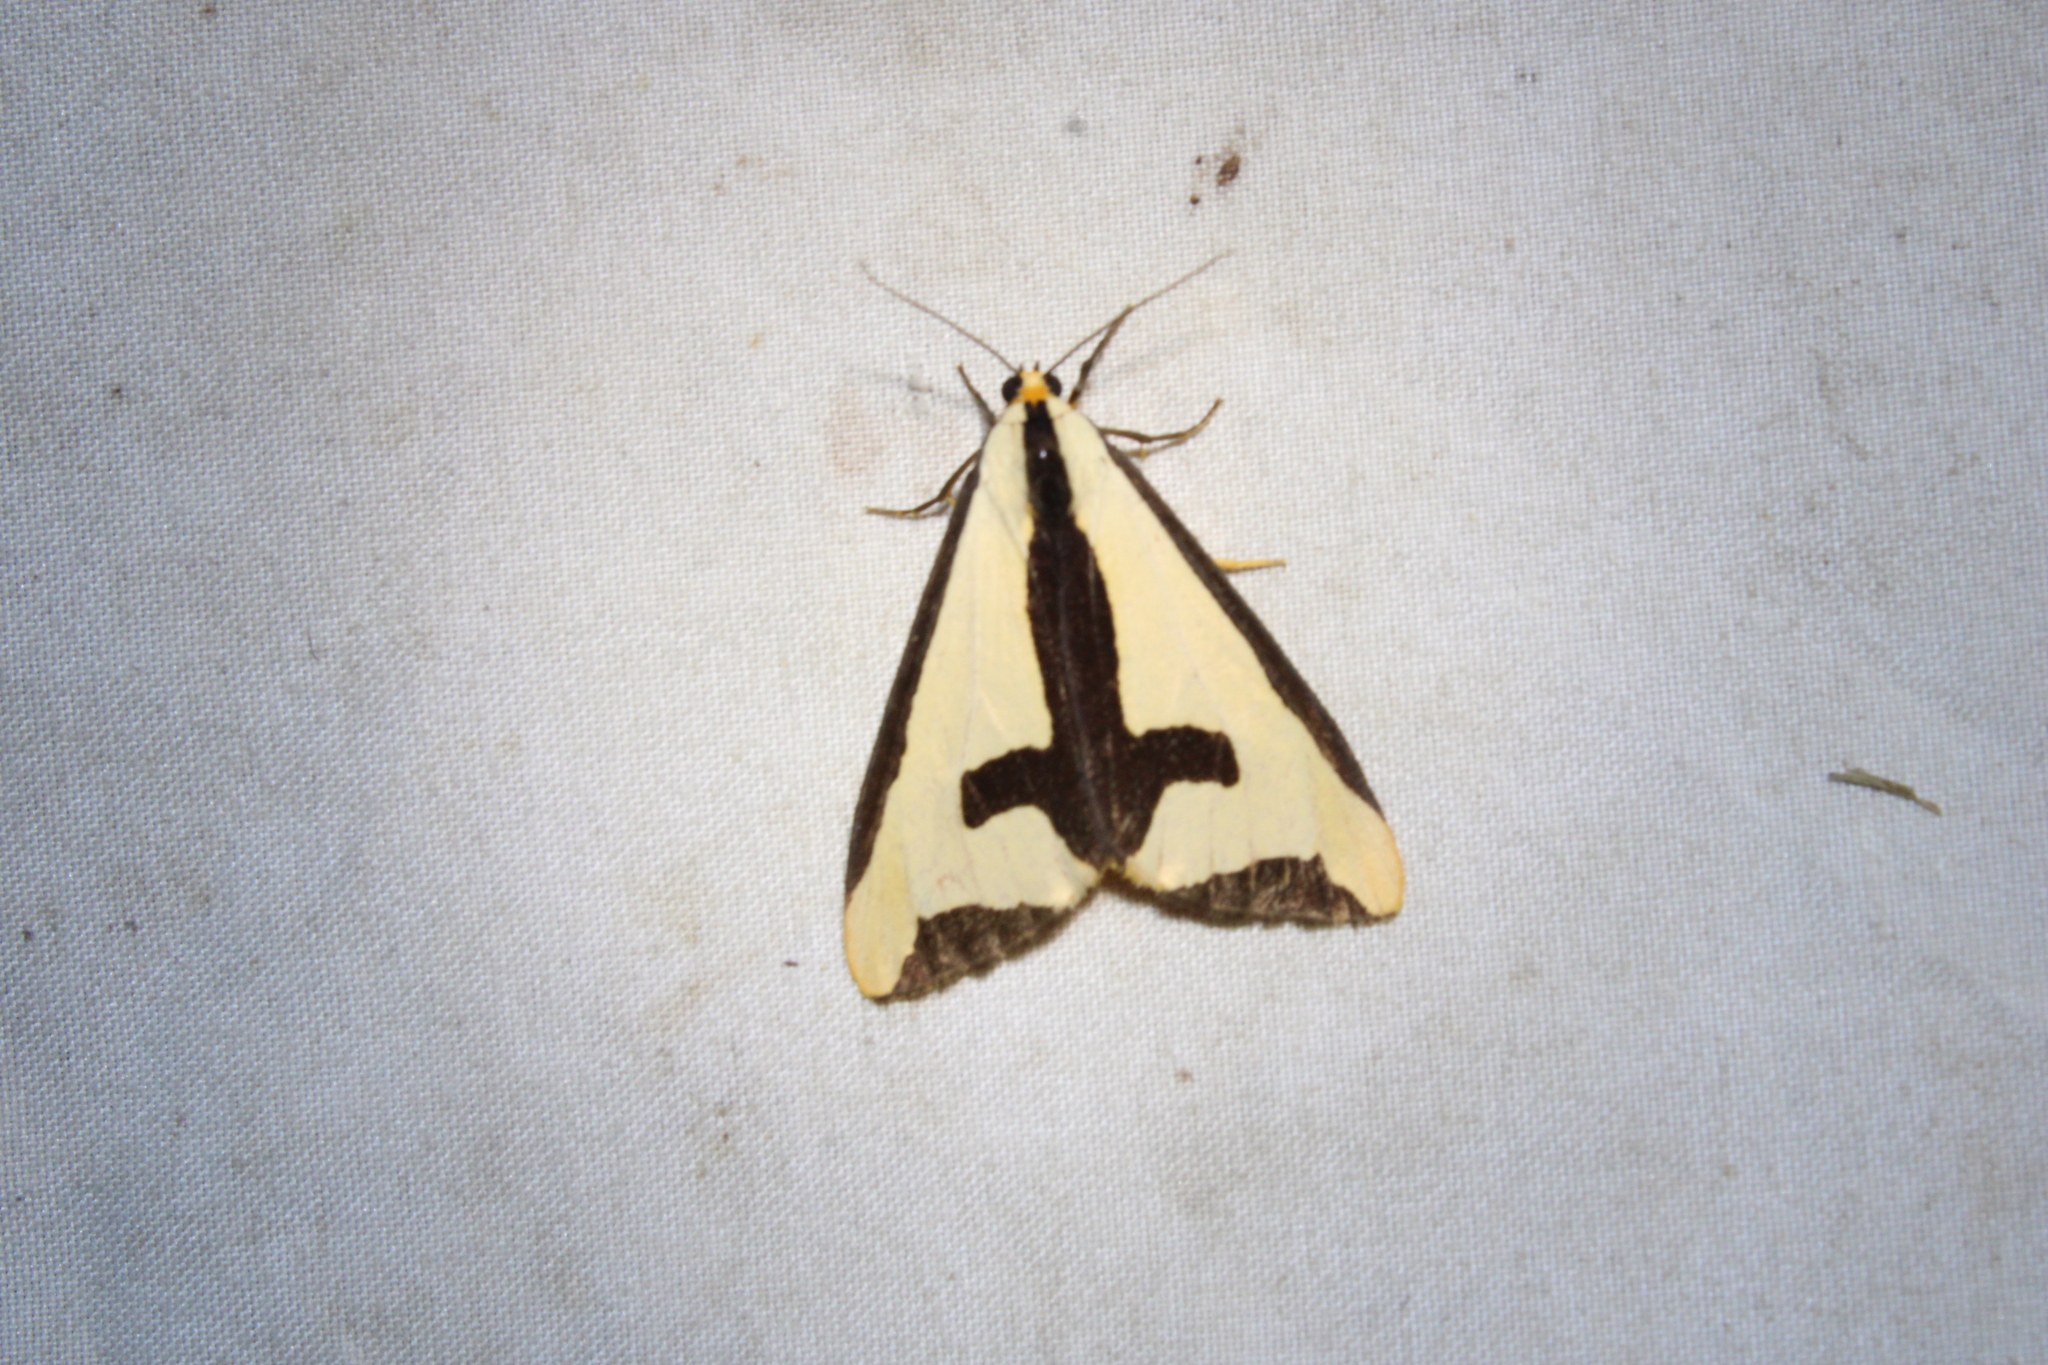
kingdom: Animalia
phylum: Arthropoda
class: Insecta
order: Lepidoptera
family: Erebidae
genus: Haploa
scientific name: Haploa clymene
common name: Clymene moth
